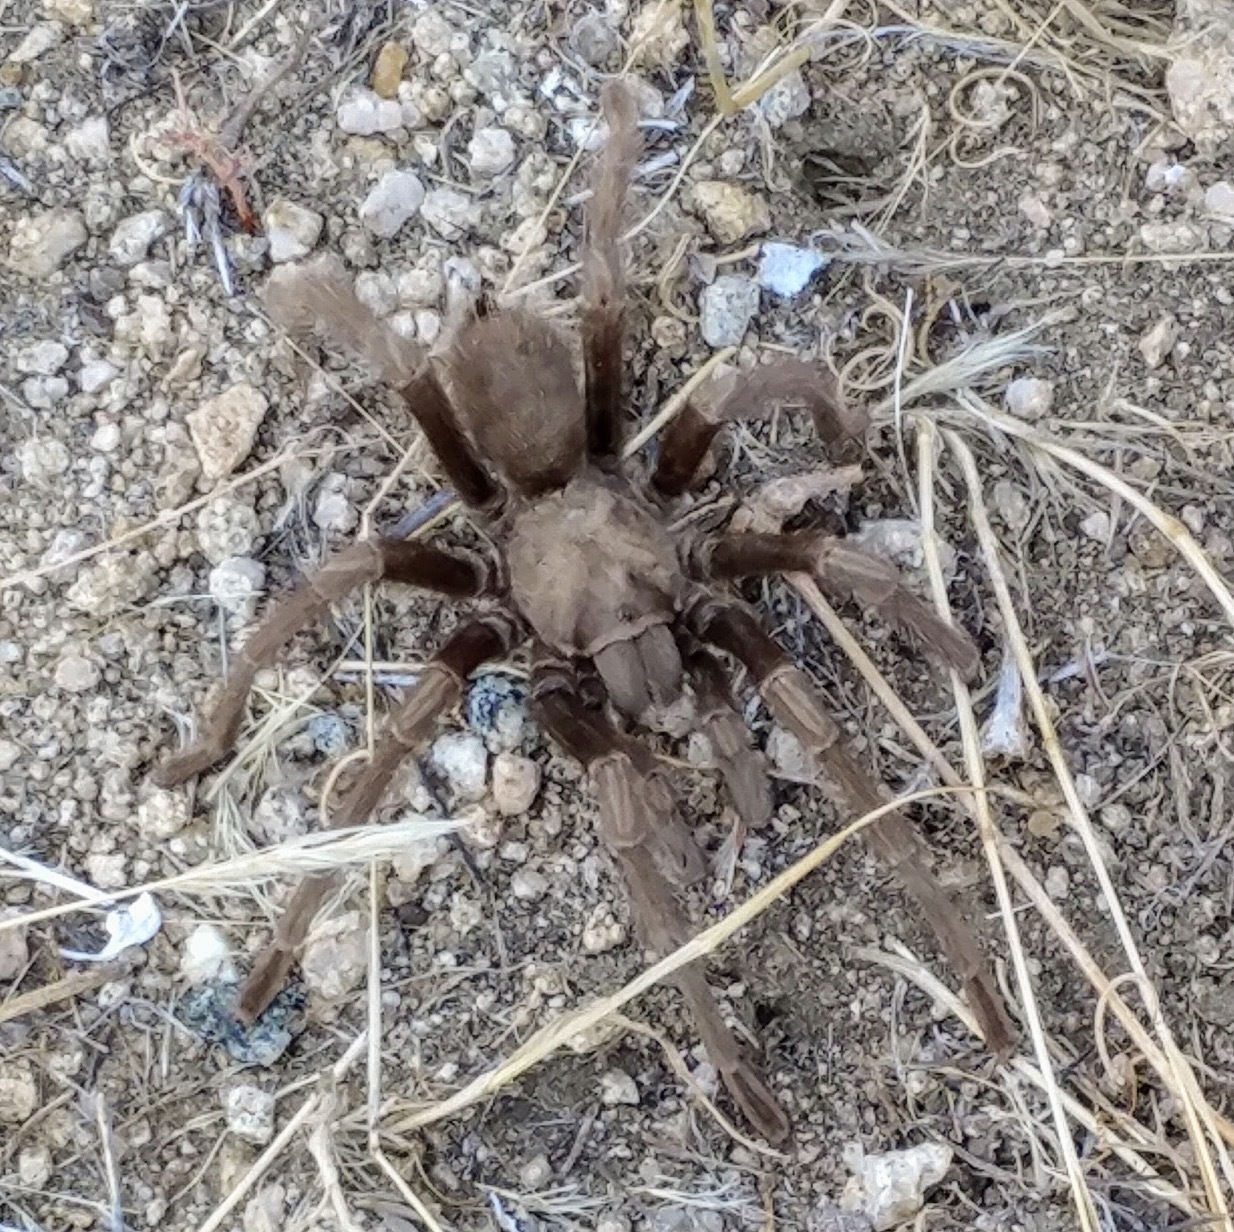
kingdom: Animalia
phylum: Arthropoda
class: Arachnida
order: Araneae
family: Theraphosidae
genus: Aphonopelma
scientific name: Aphonopelma iodius
